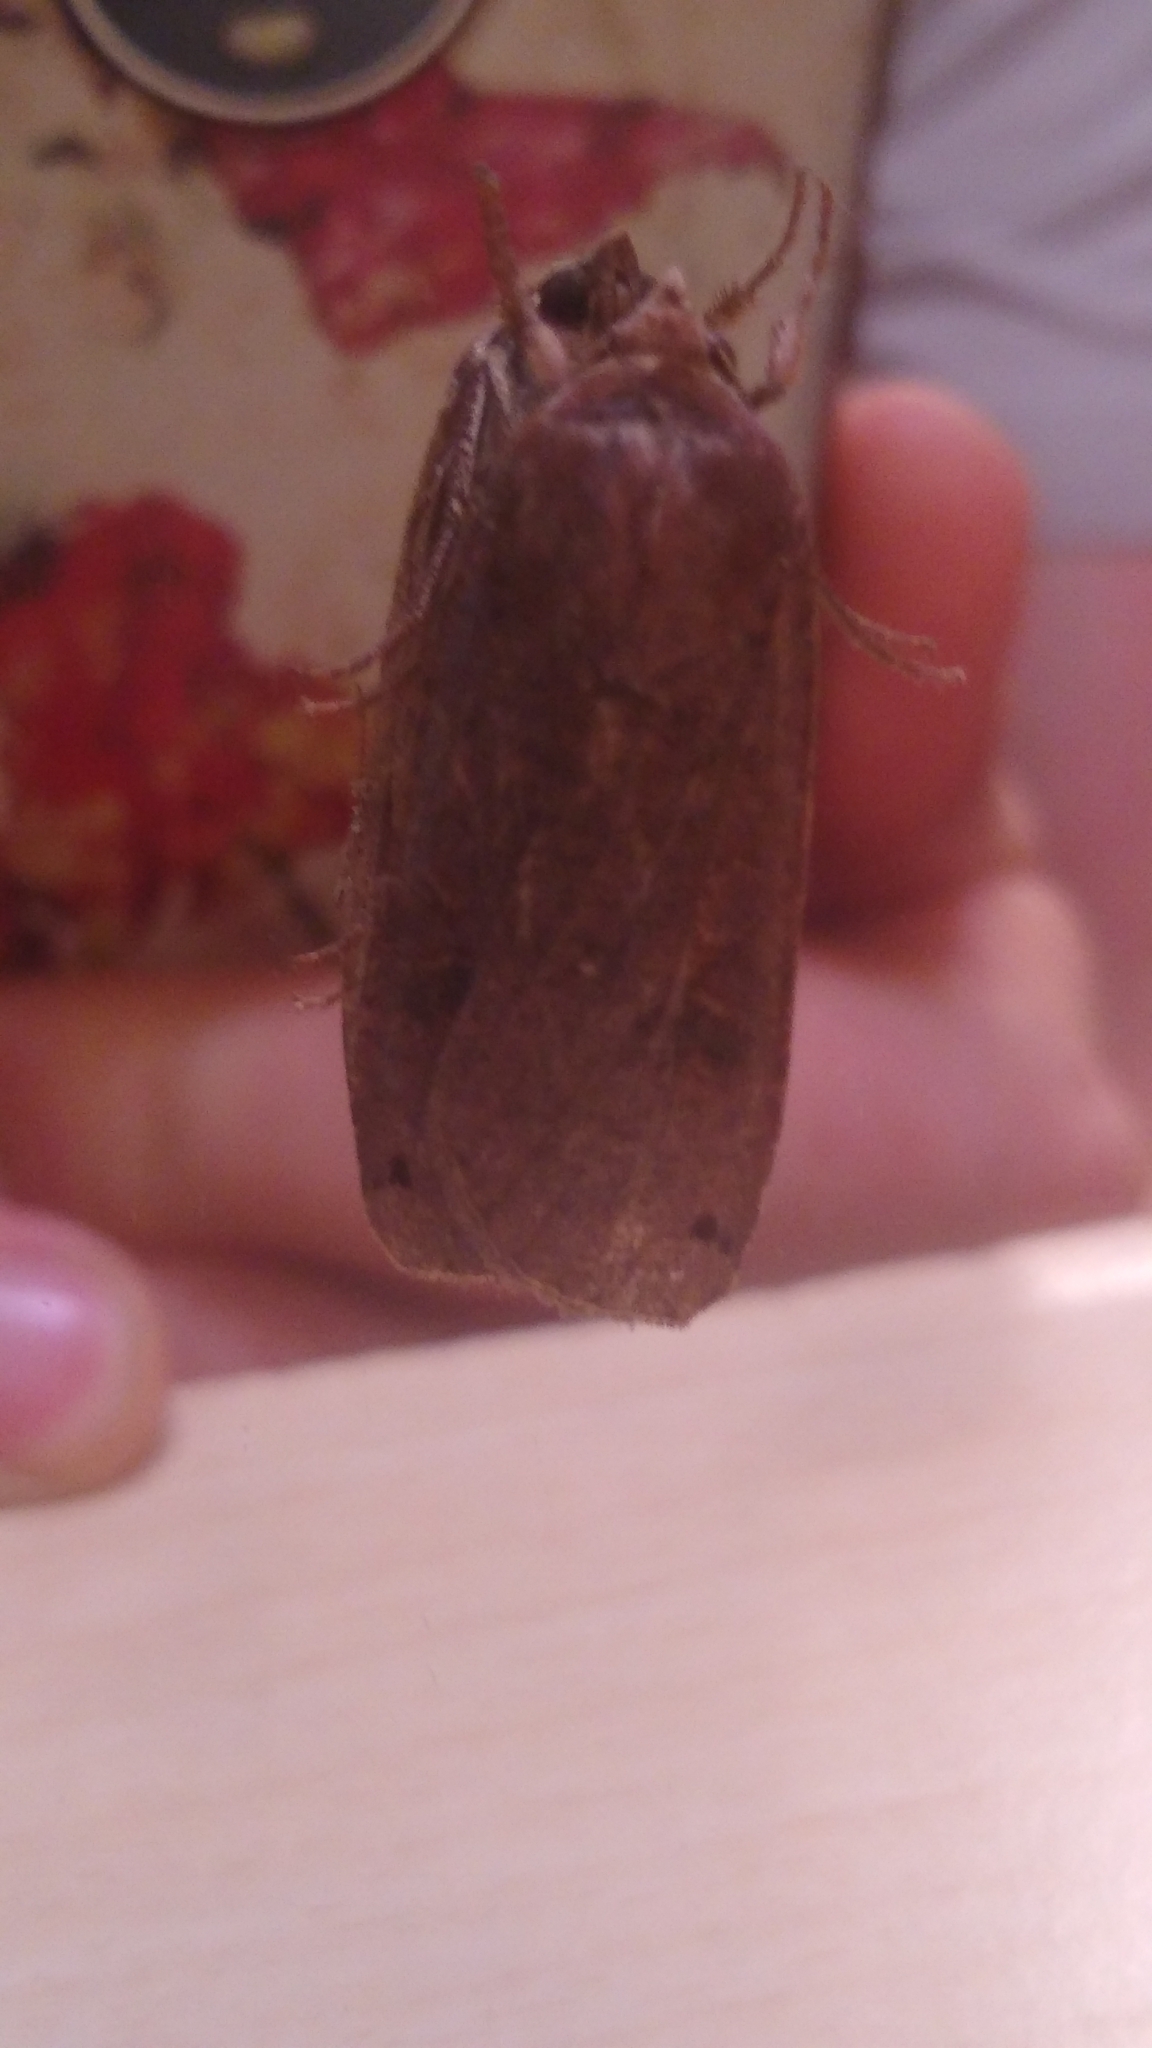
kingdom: Animalia
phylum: Arthropoda
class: Insecta
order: Lepidoptera
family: Noctuidae
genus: Noctua
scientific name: Noctua pronuba
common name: Large yellow underwing
